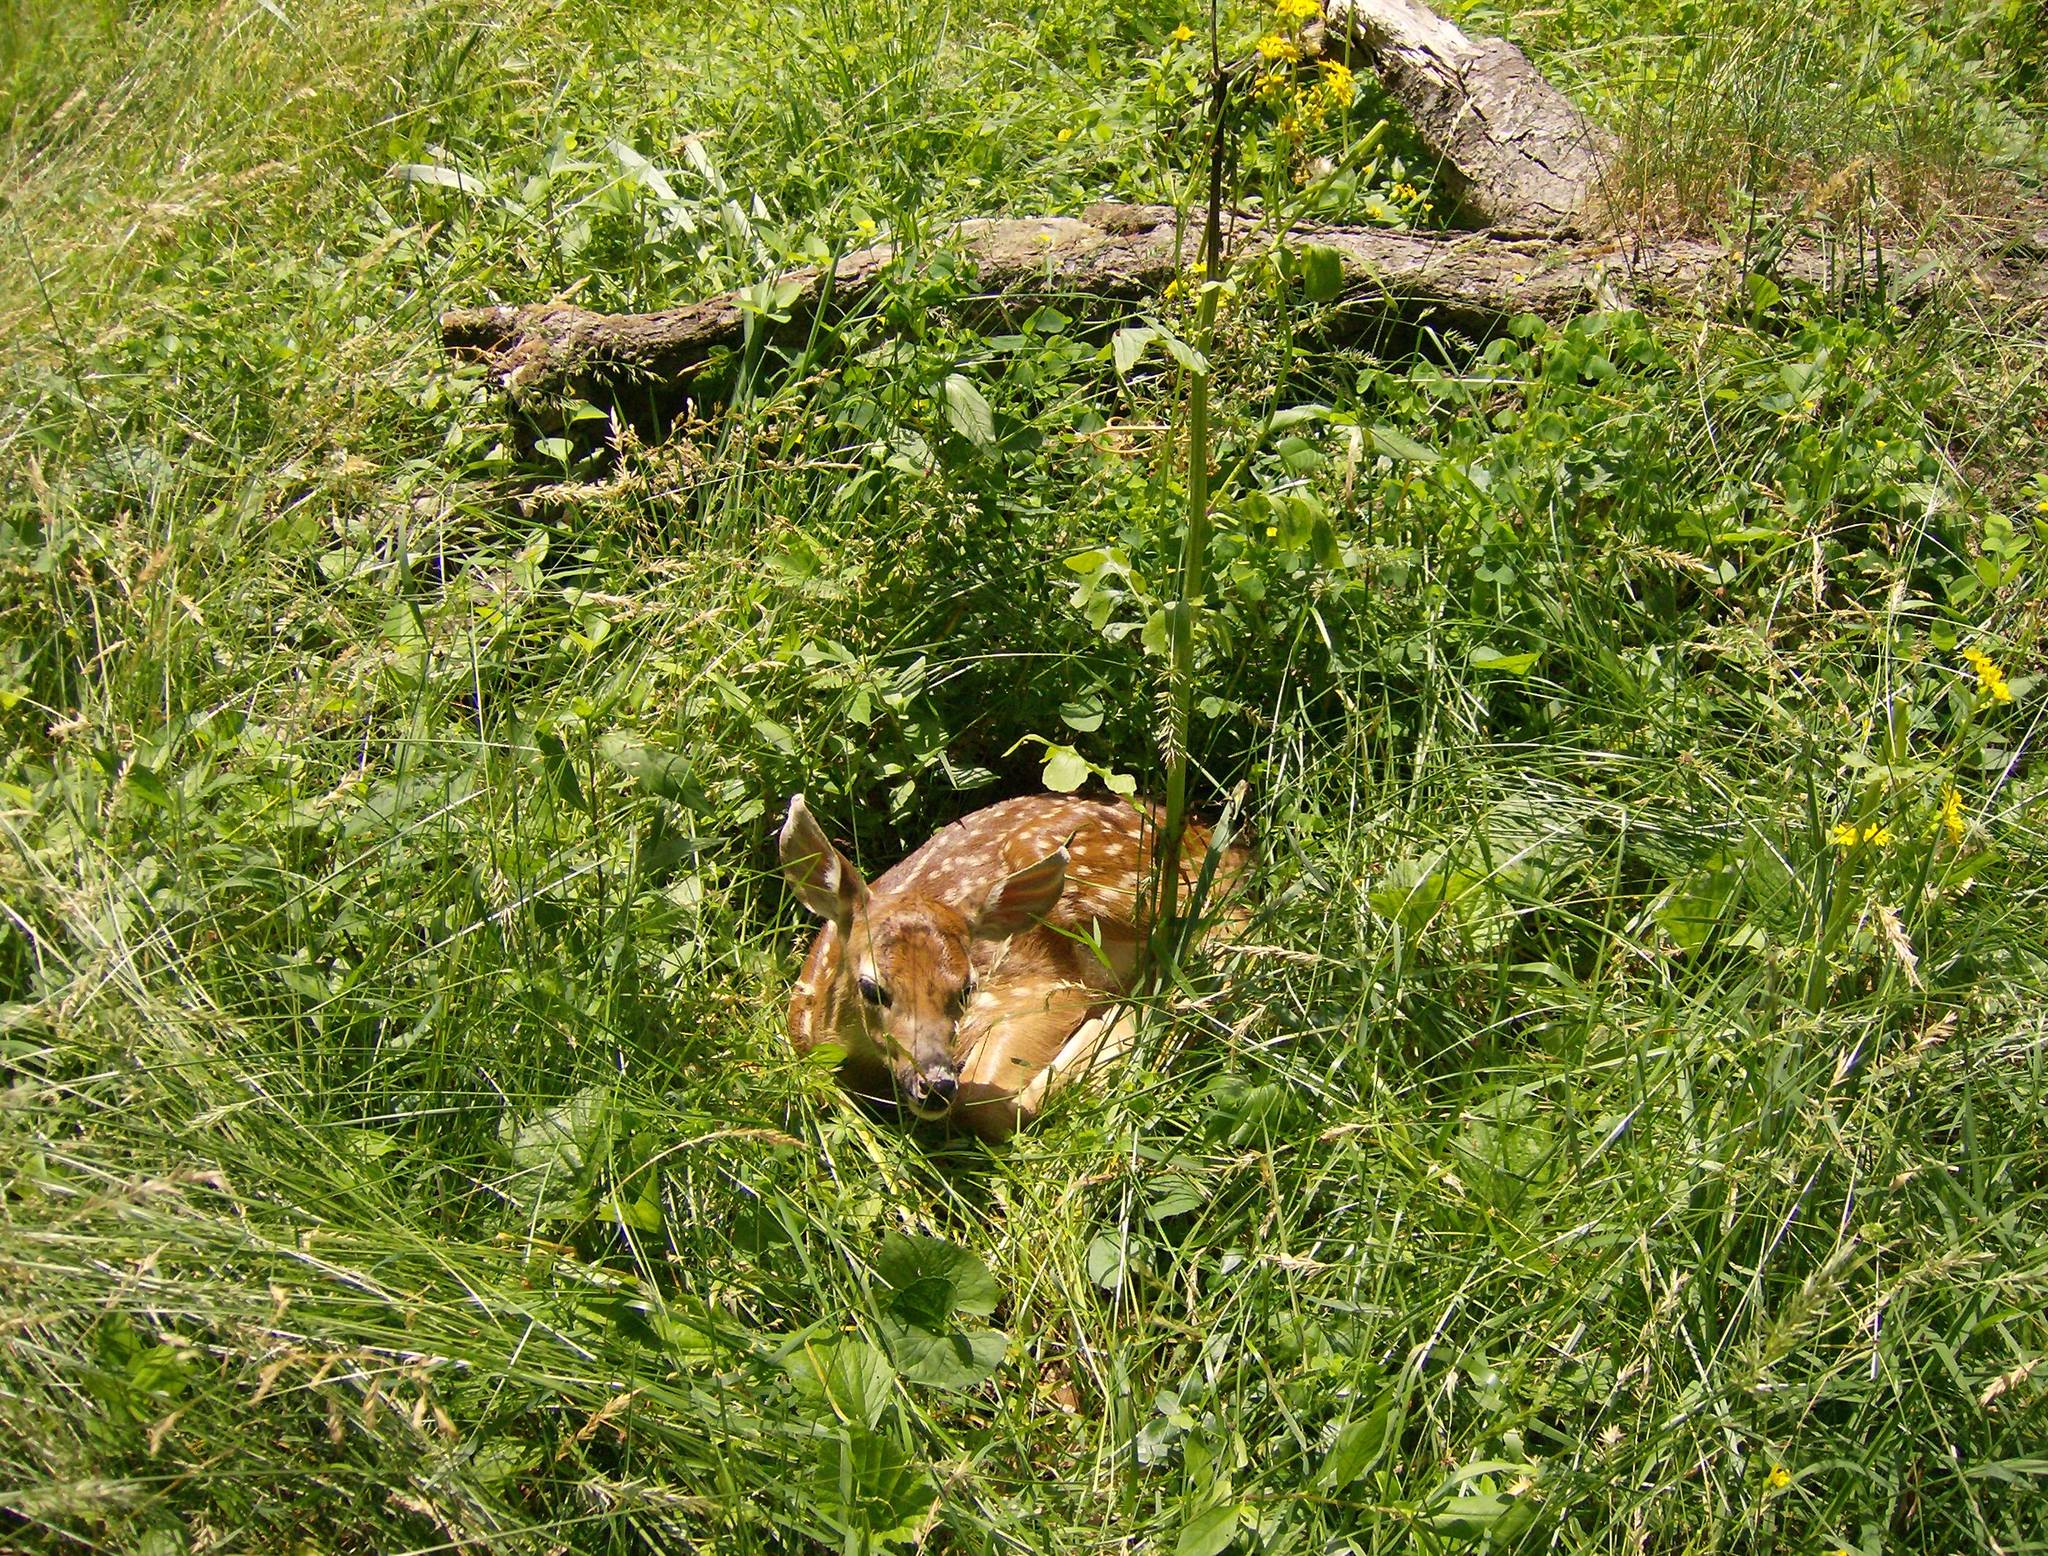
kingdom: Animalia
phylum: Chordata
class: Mammalia
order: Artiodactyla
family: Cervidae
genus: Odocoileus
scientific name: Odocoileus virginianus
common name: White-tailed deer
